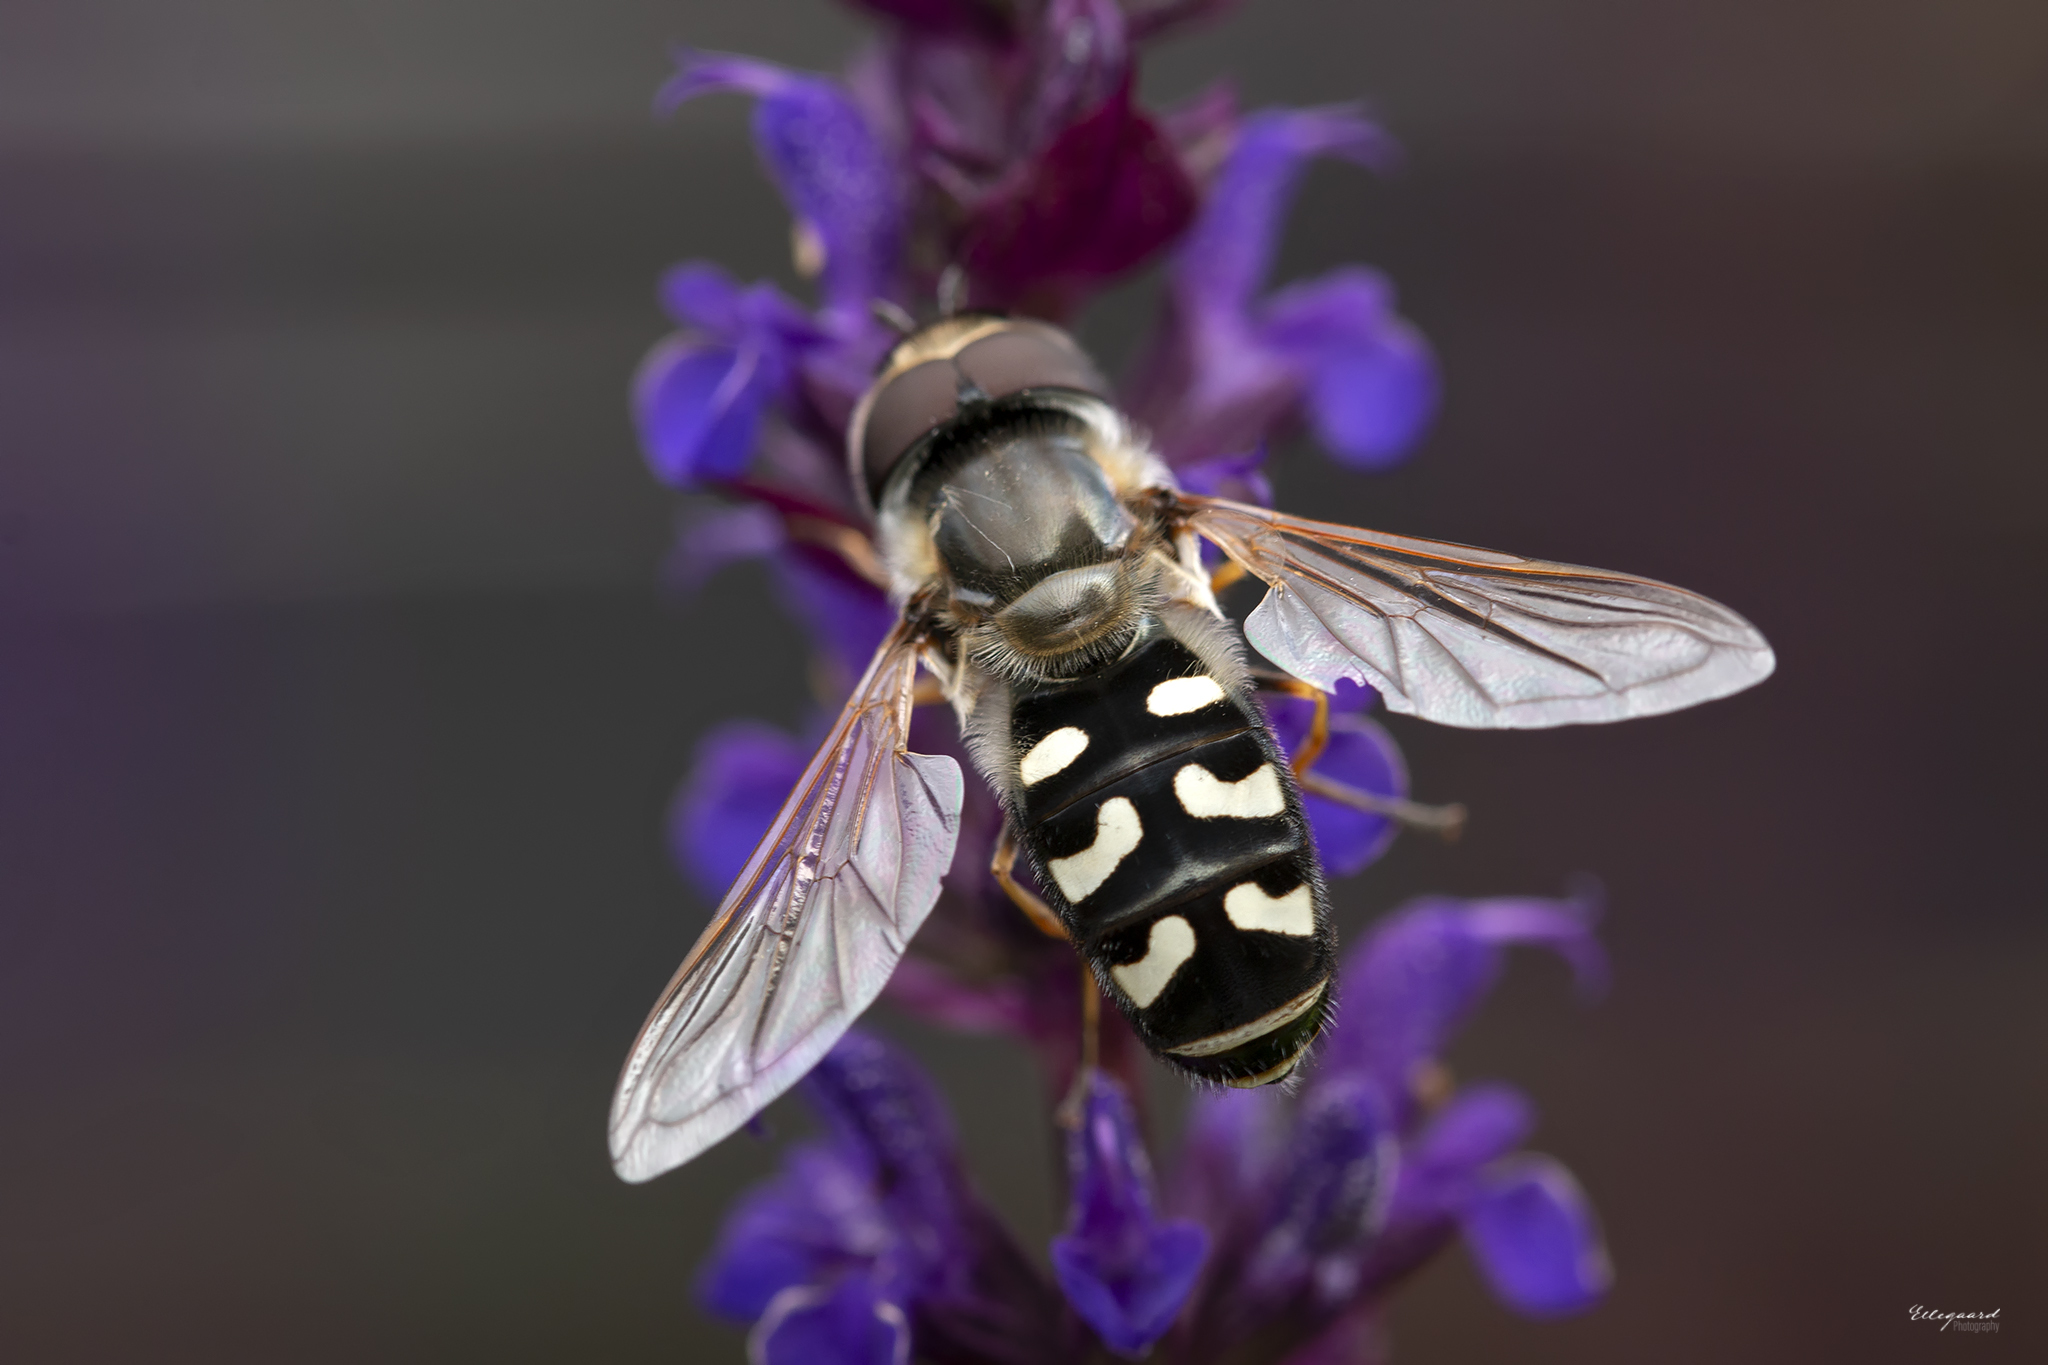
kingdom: Animalia
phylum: Arthropoda
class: Insecta
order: Diptera
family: Syrphidae
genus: Scaeva
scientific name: Scaeva pyrastri
